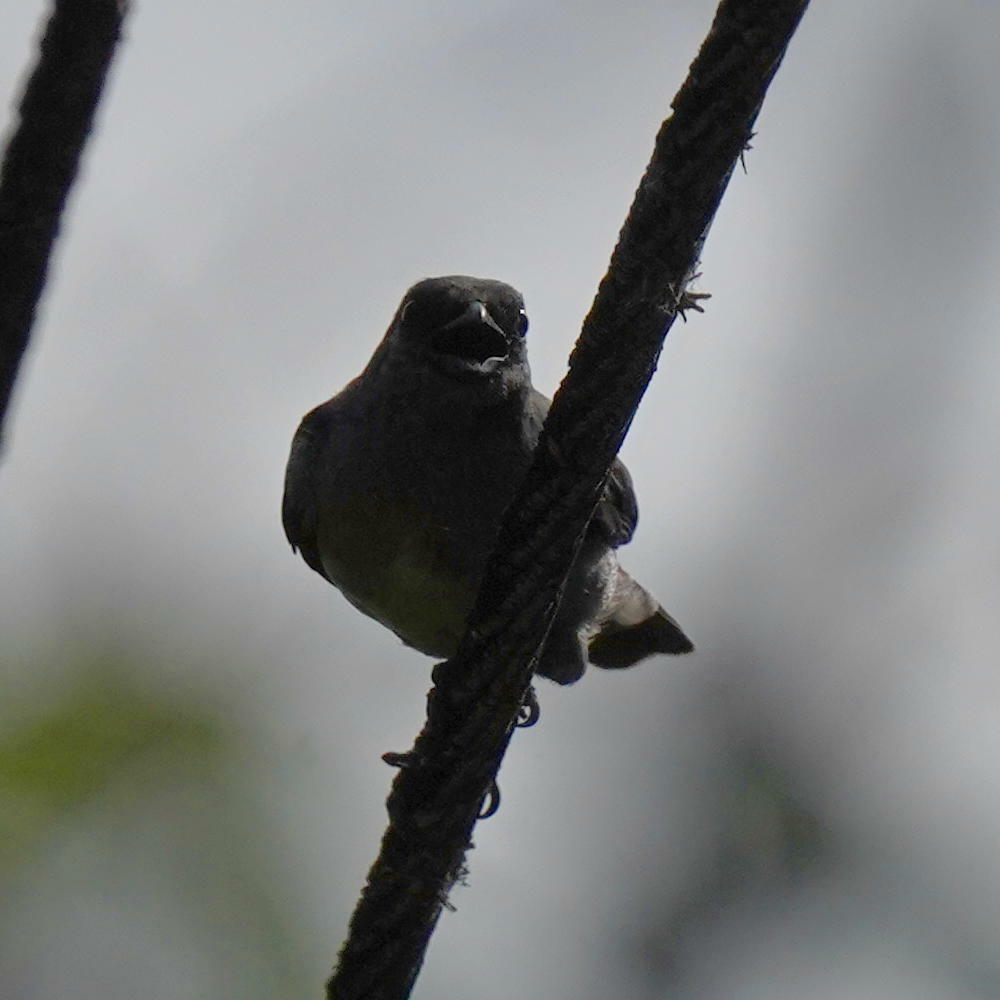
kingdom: Animalia
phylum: Chordata
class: Aves
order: Passeriformes
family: Thraupidae
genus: Tangara
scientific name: Tangara inornata
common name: Plain-colored tanager
